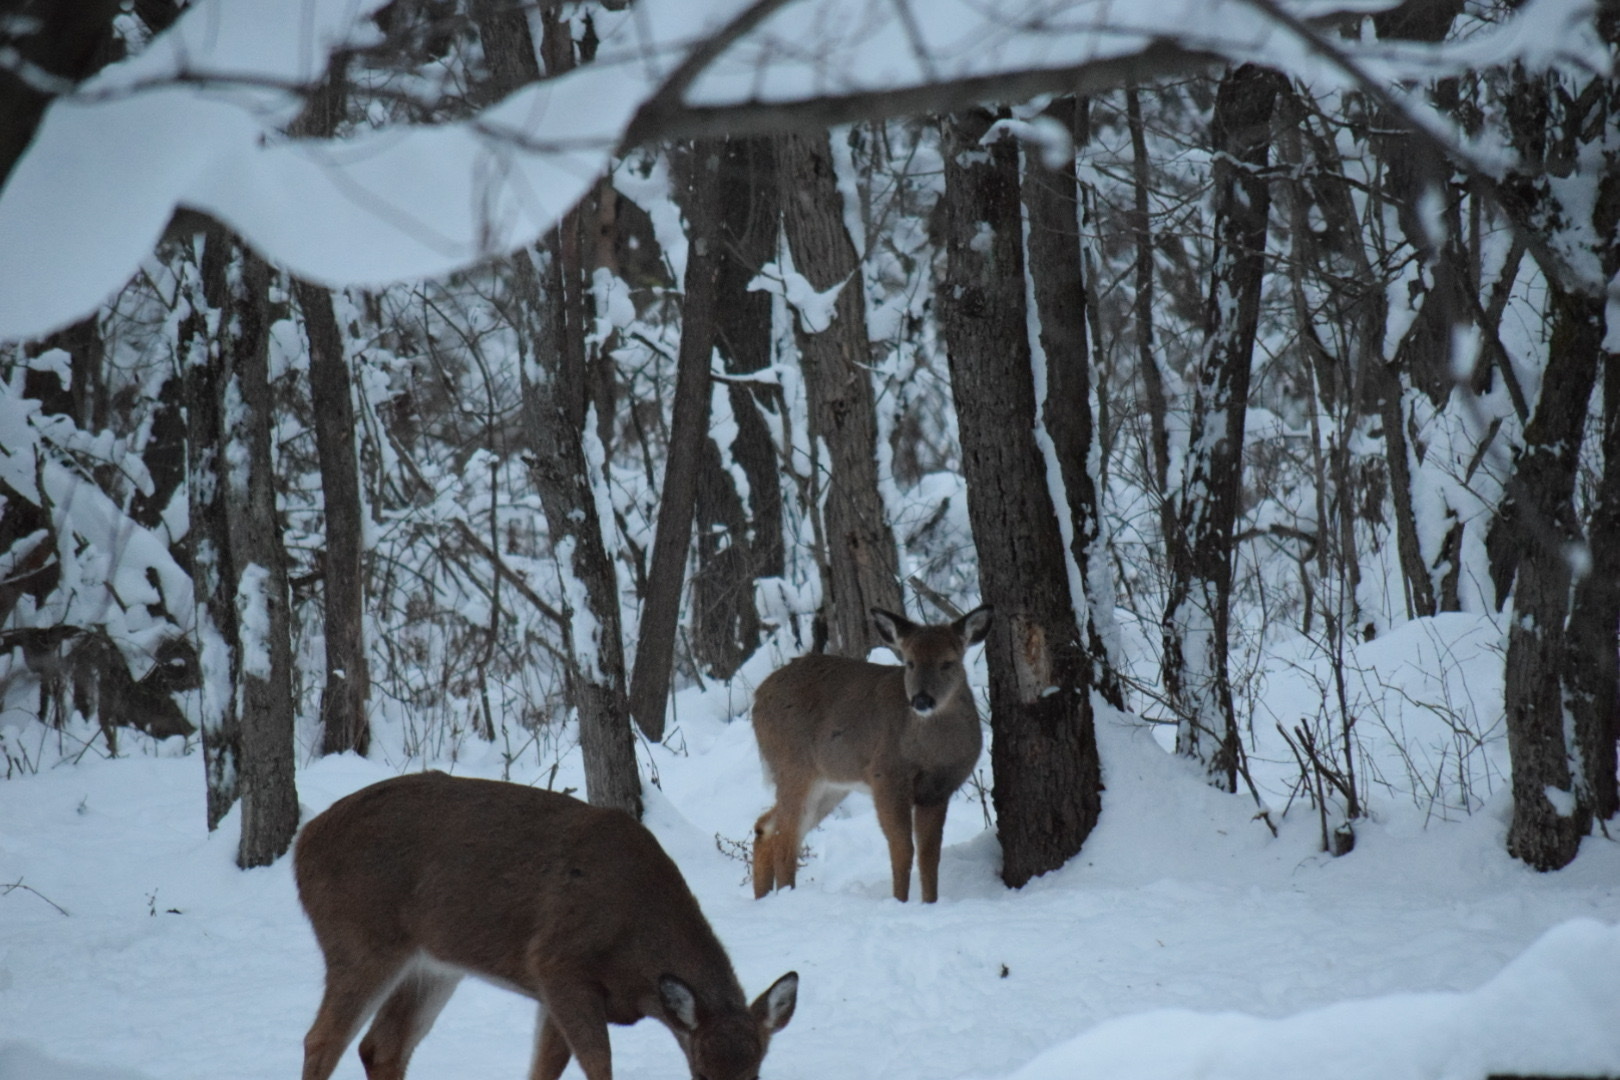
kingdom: Animalia
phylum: Chordata
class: Mammalia
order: Artiodactyla
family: Cervidae
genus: Odocoileus
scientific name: Odocoileus virginianus
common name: White-tailed deer
